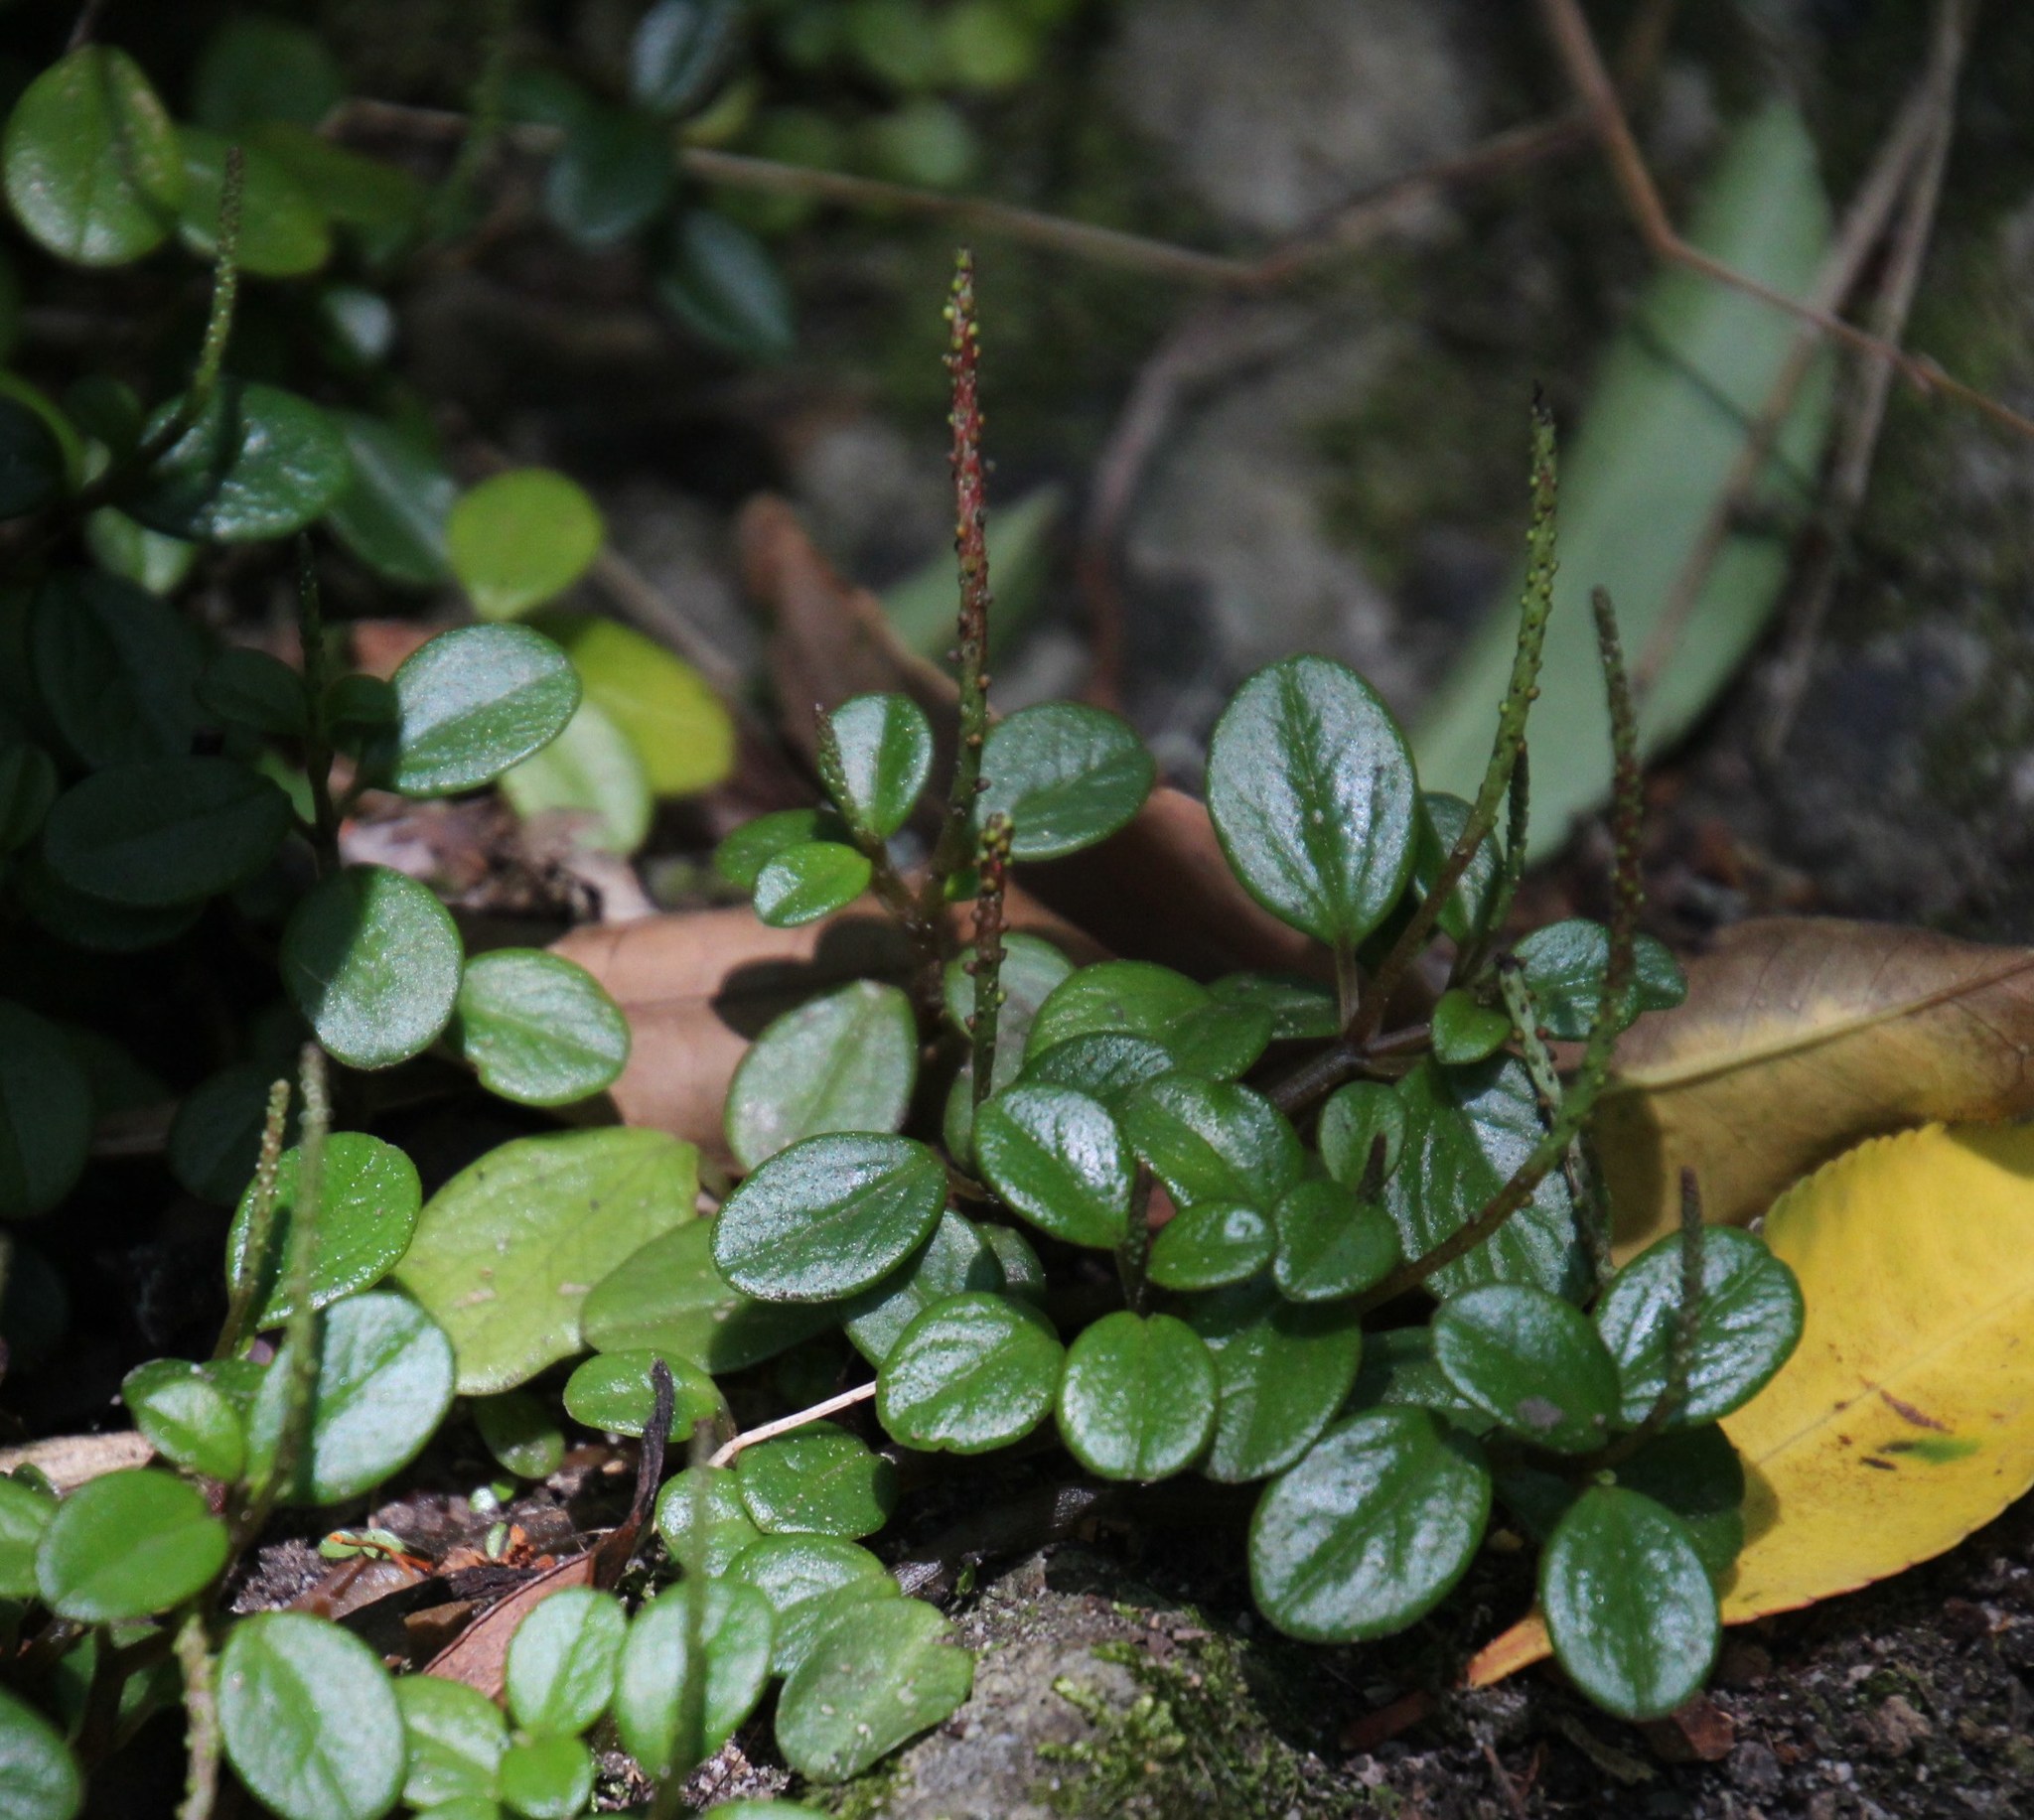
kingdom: Plantae
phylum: Tracheophyta
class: Magnoliopsida
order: Piperales
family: Piperaceae
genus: Peperomia
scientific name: Peperomia retusa
